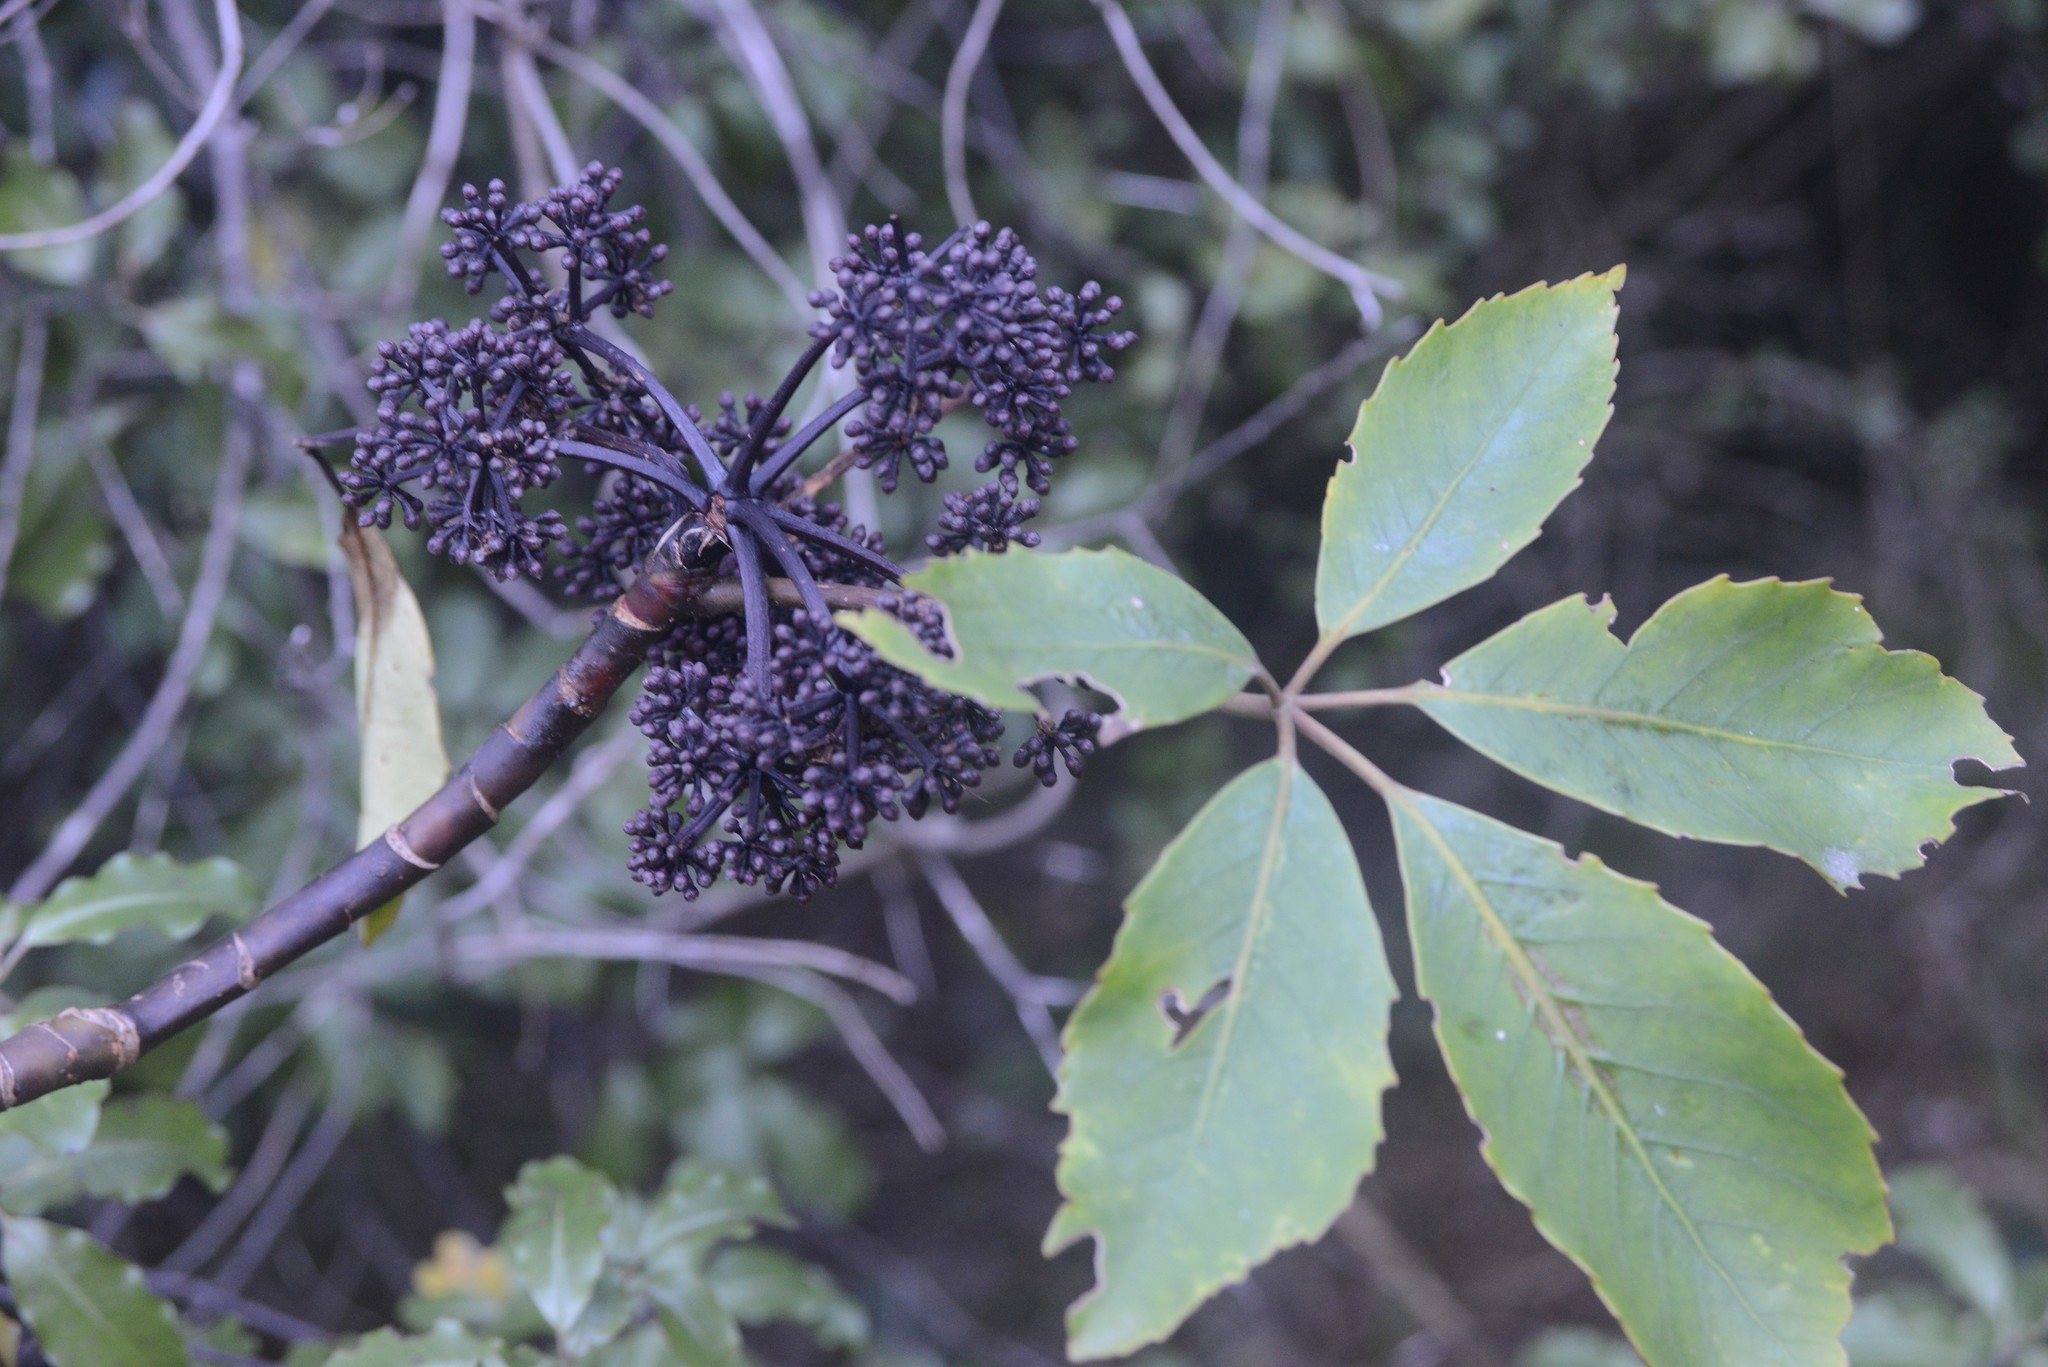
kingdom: Plantae
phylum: Tracheophyta
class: Magnoliopsida
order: Apiales
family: Araliaceae
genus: Neopanax
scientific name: Neopanax arboreus
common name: Five-fingers
